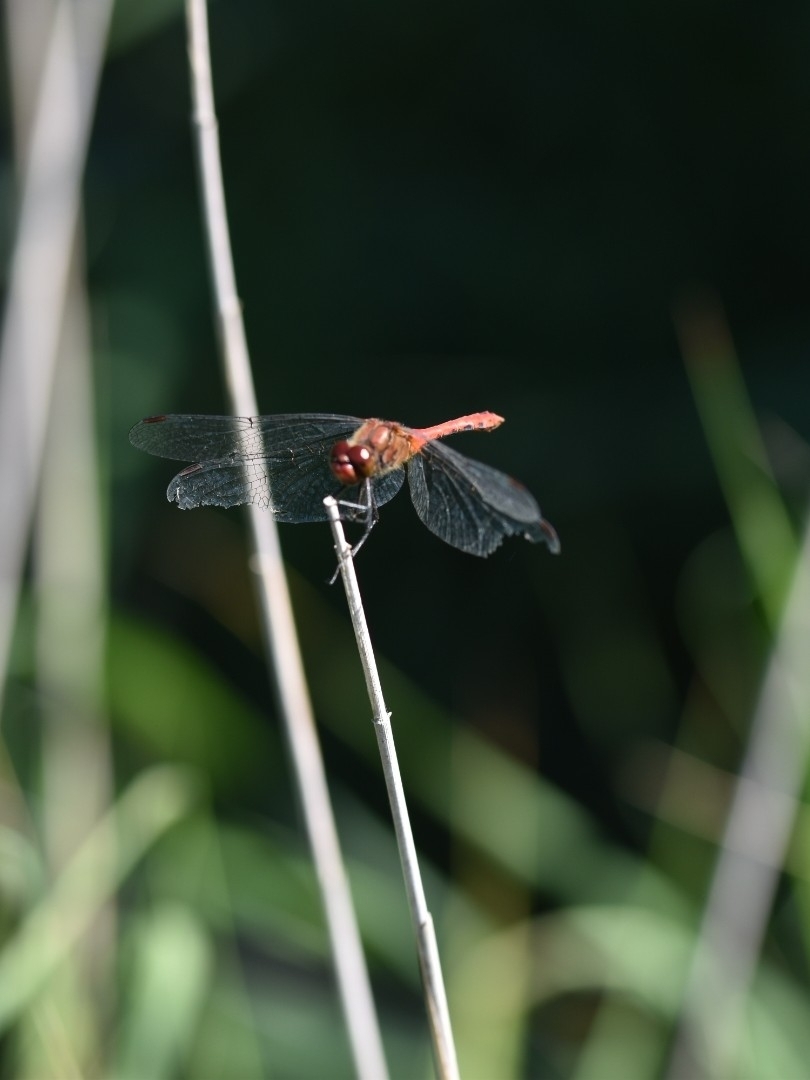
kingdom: Animalia
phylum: Arthropoda
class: Insecta
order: Odonata
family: Libellulidae
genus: Sympetrum
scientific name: Sympetrum sanguineum
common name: Ruddy darter
